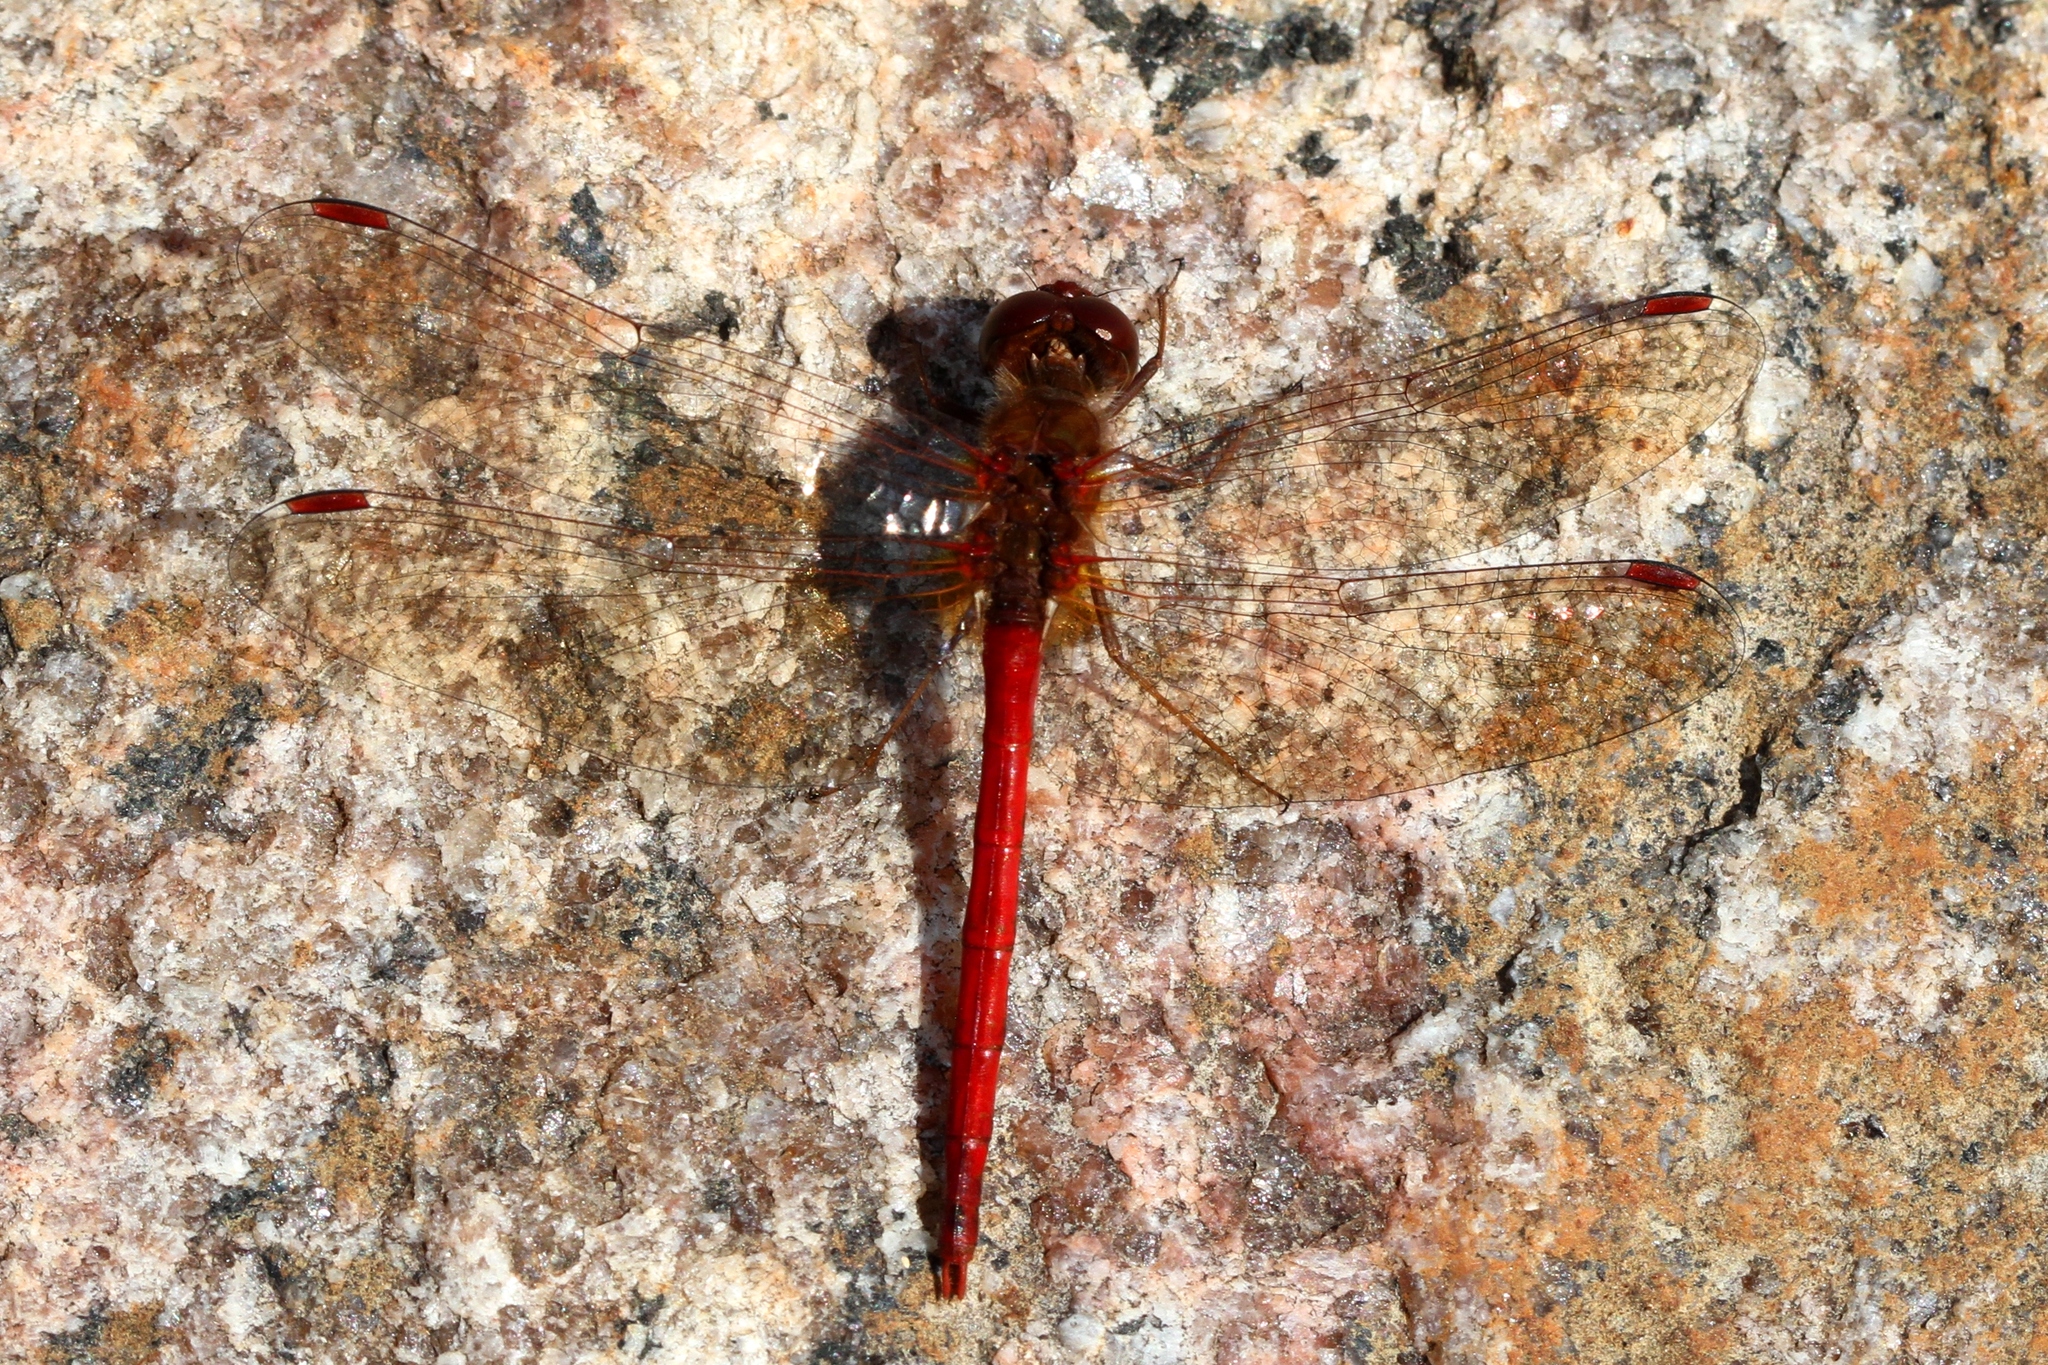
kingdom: Animalia
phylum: Arthropoda
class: Insecta
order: Odonata
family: Libellulidae
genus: Sympetrum
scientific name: Sympetrum vicinum
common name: Autumn meadowhawk
